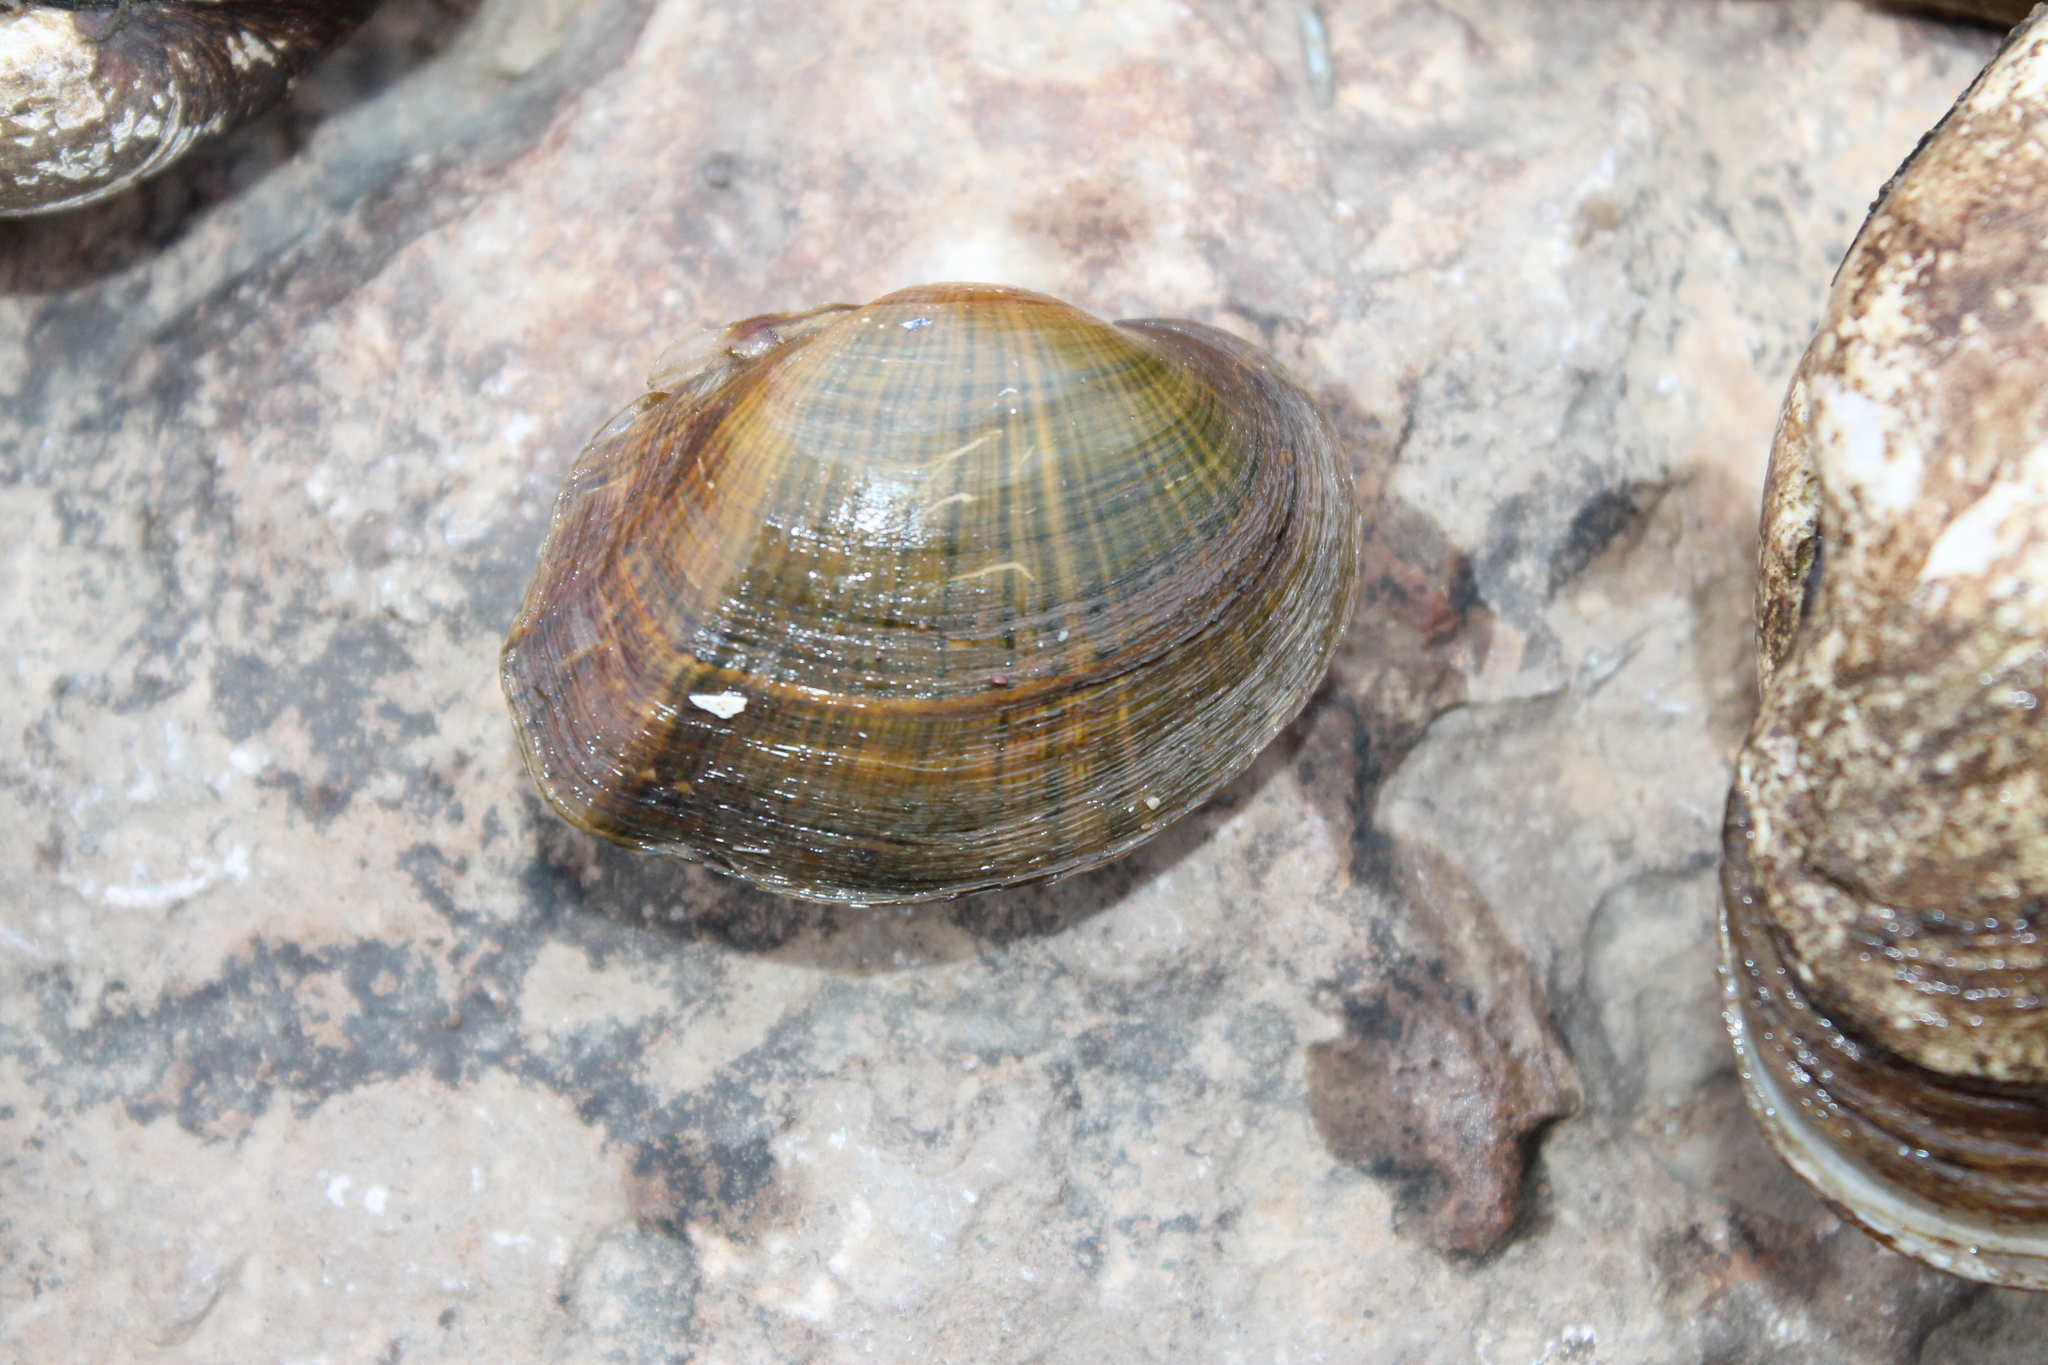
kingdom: Animalia
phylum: Mollusca
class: Bivalvia
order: Unionida
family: Unionidae
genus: Epioblasma
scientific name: Epioblasma ahlstedti
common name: Duck river dartersnapper
